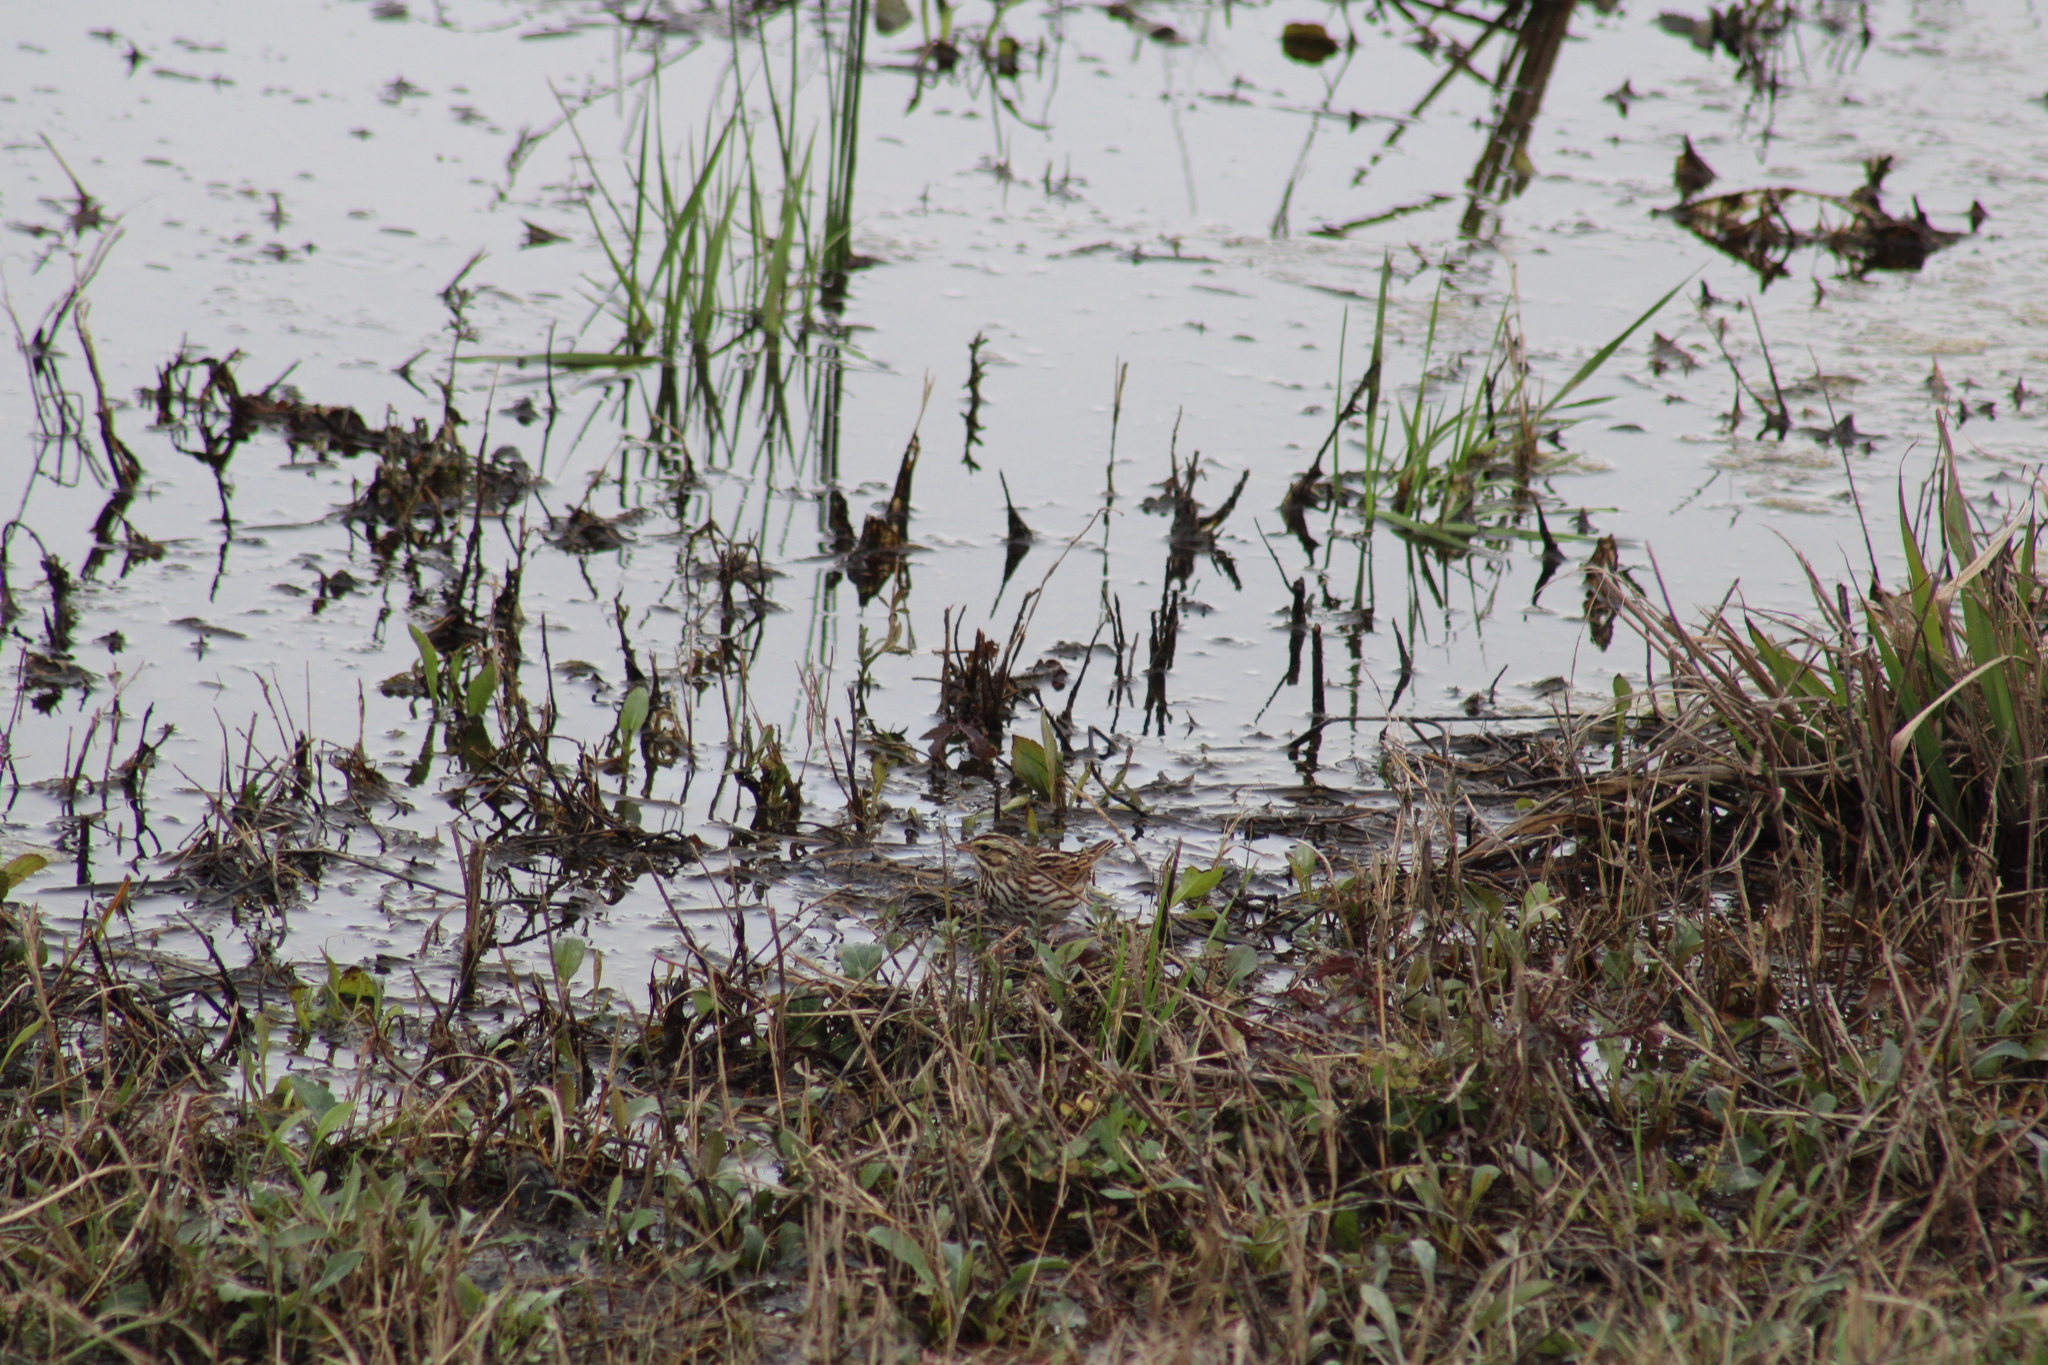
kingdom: Animalia
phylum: Chordata
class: Aves
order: Passeriformes
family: Passerellidae
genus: Passerculus
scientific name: Passerculus sandwichensis
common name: Savannah sparrow
